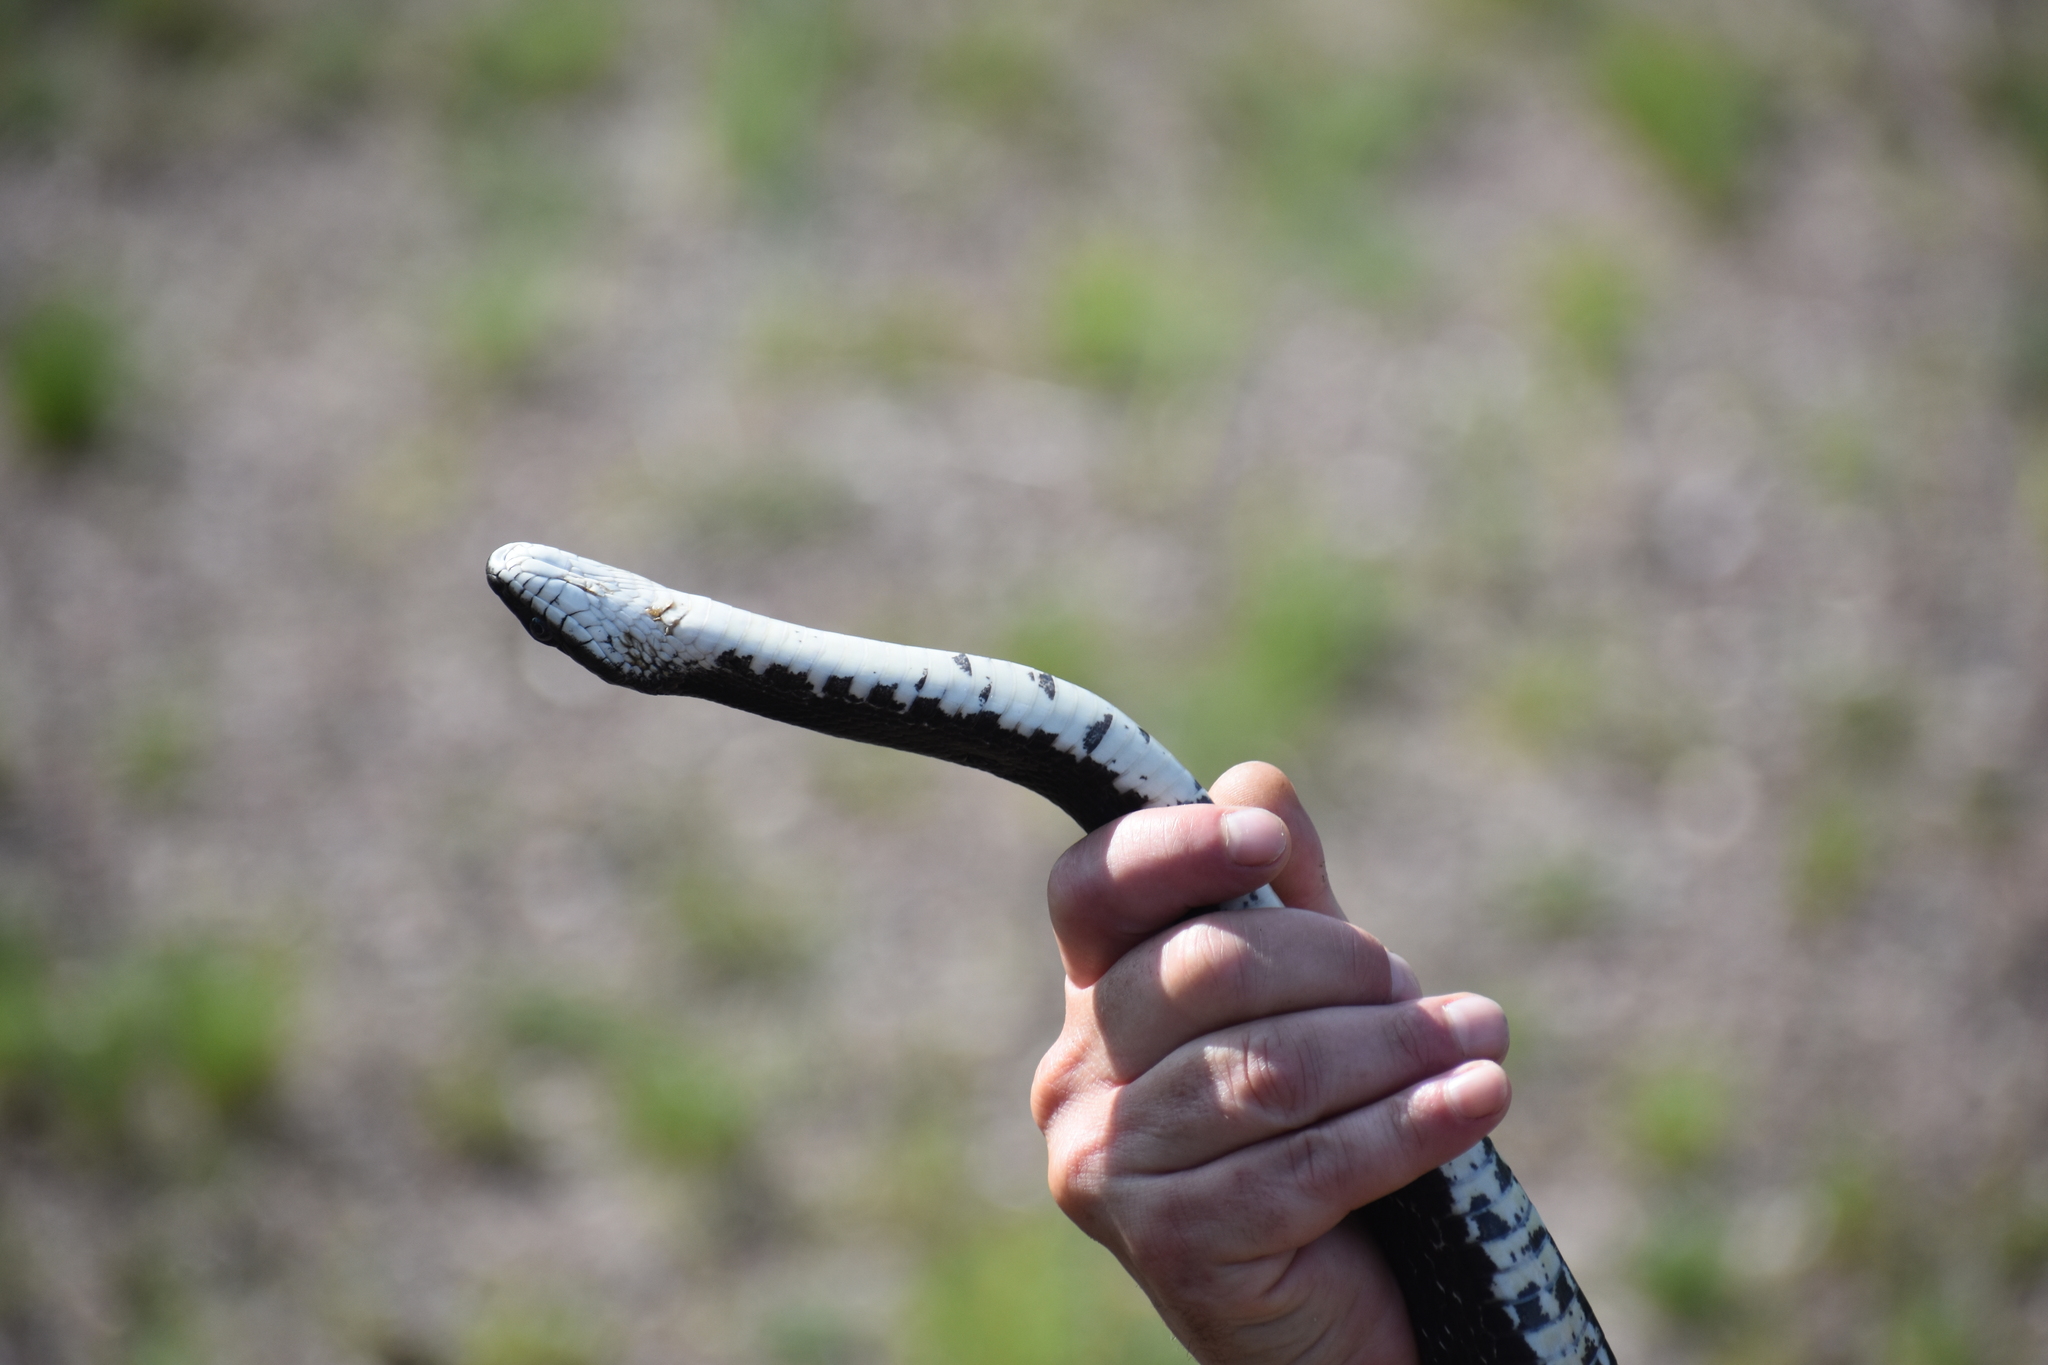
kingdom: Animalia
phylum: Chordata
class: Squamata
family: Colubridae
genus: Pantherophis
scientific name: Pantherophis alleghaniensis
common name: Eastern rat snake
